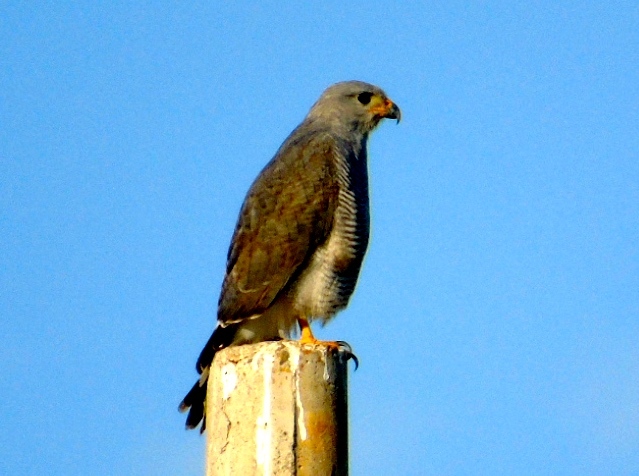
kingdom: Animalia
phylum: Chordata
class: Aves
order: Accipitriformes
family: Accipitridae
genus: Buteo
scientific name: Buteo nitidus
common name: Grey-lined hawk
